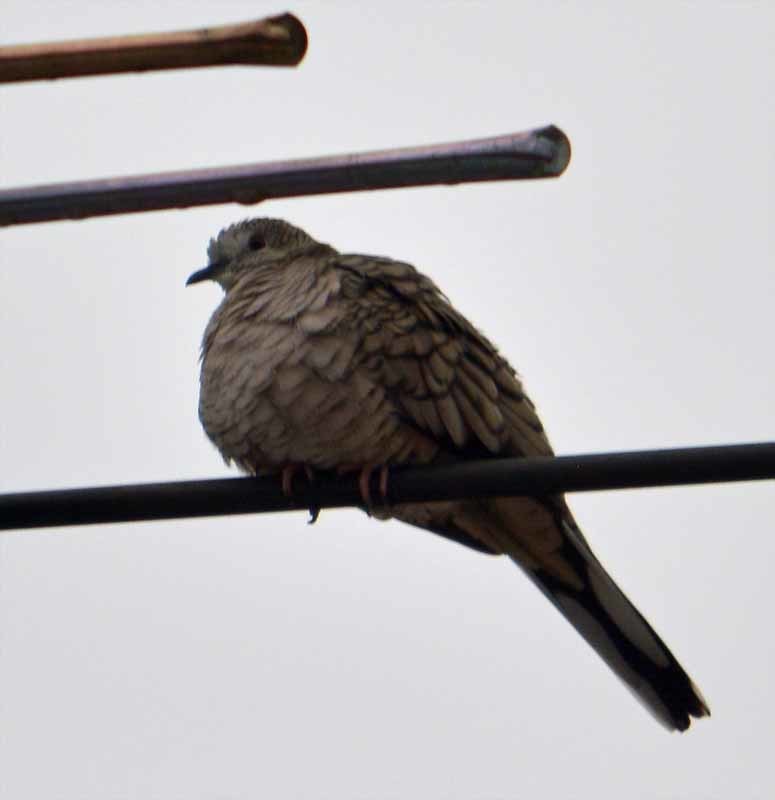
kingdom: Animalia
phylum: Chordata
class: Aves
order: Columbiformes
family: Columbidae
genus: Columbina
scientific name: Columbina inca
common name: Inca dove
